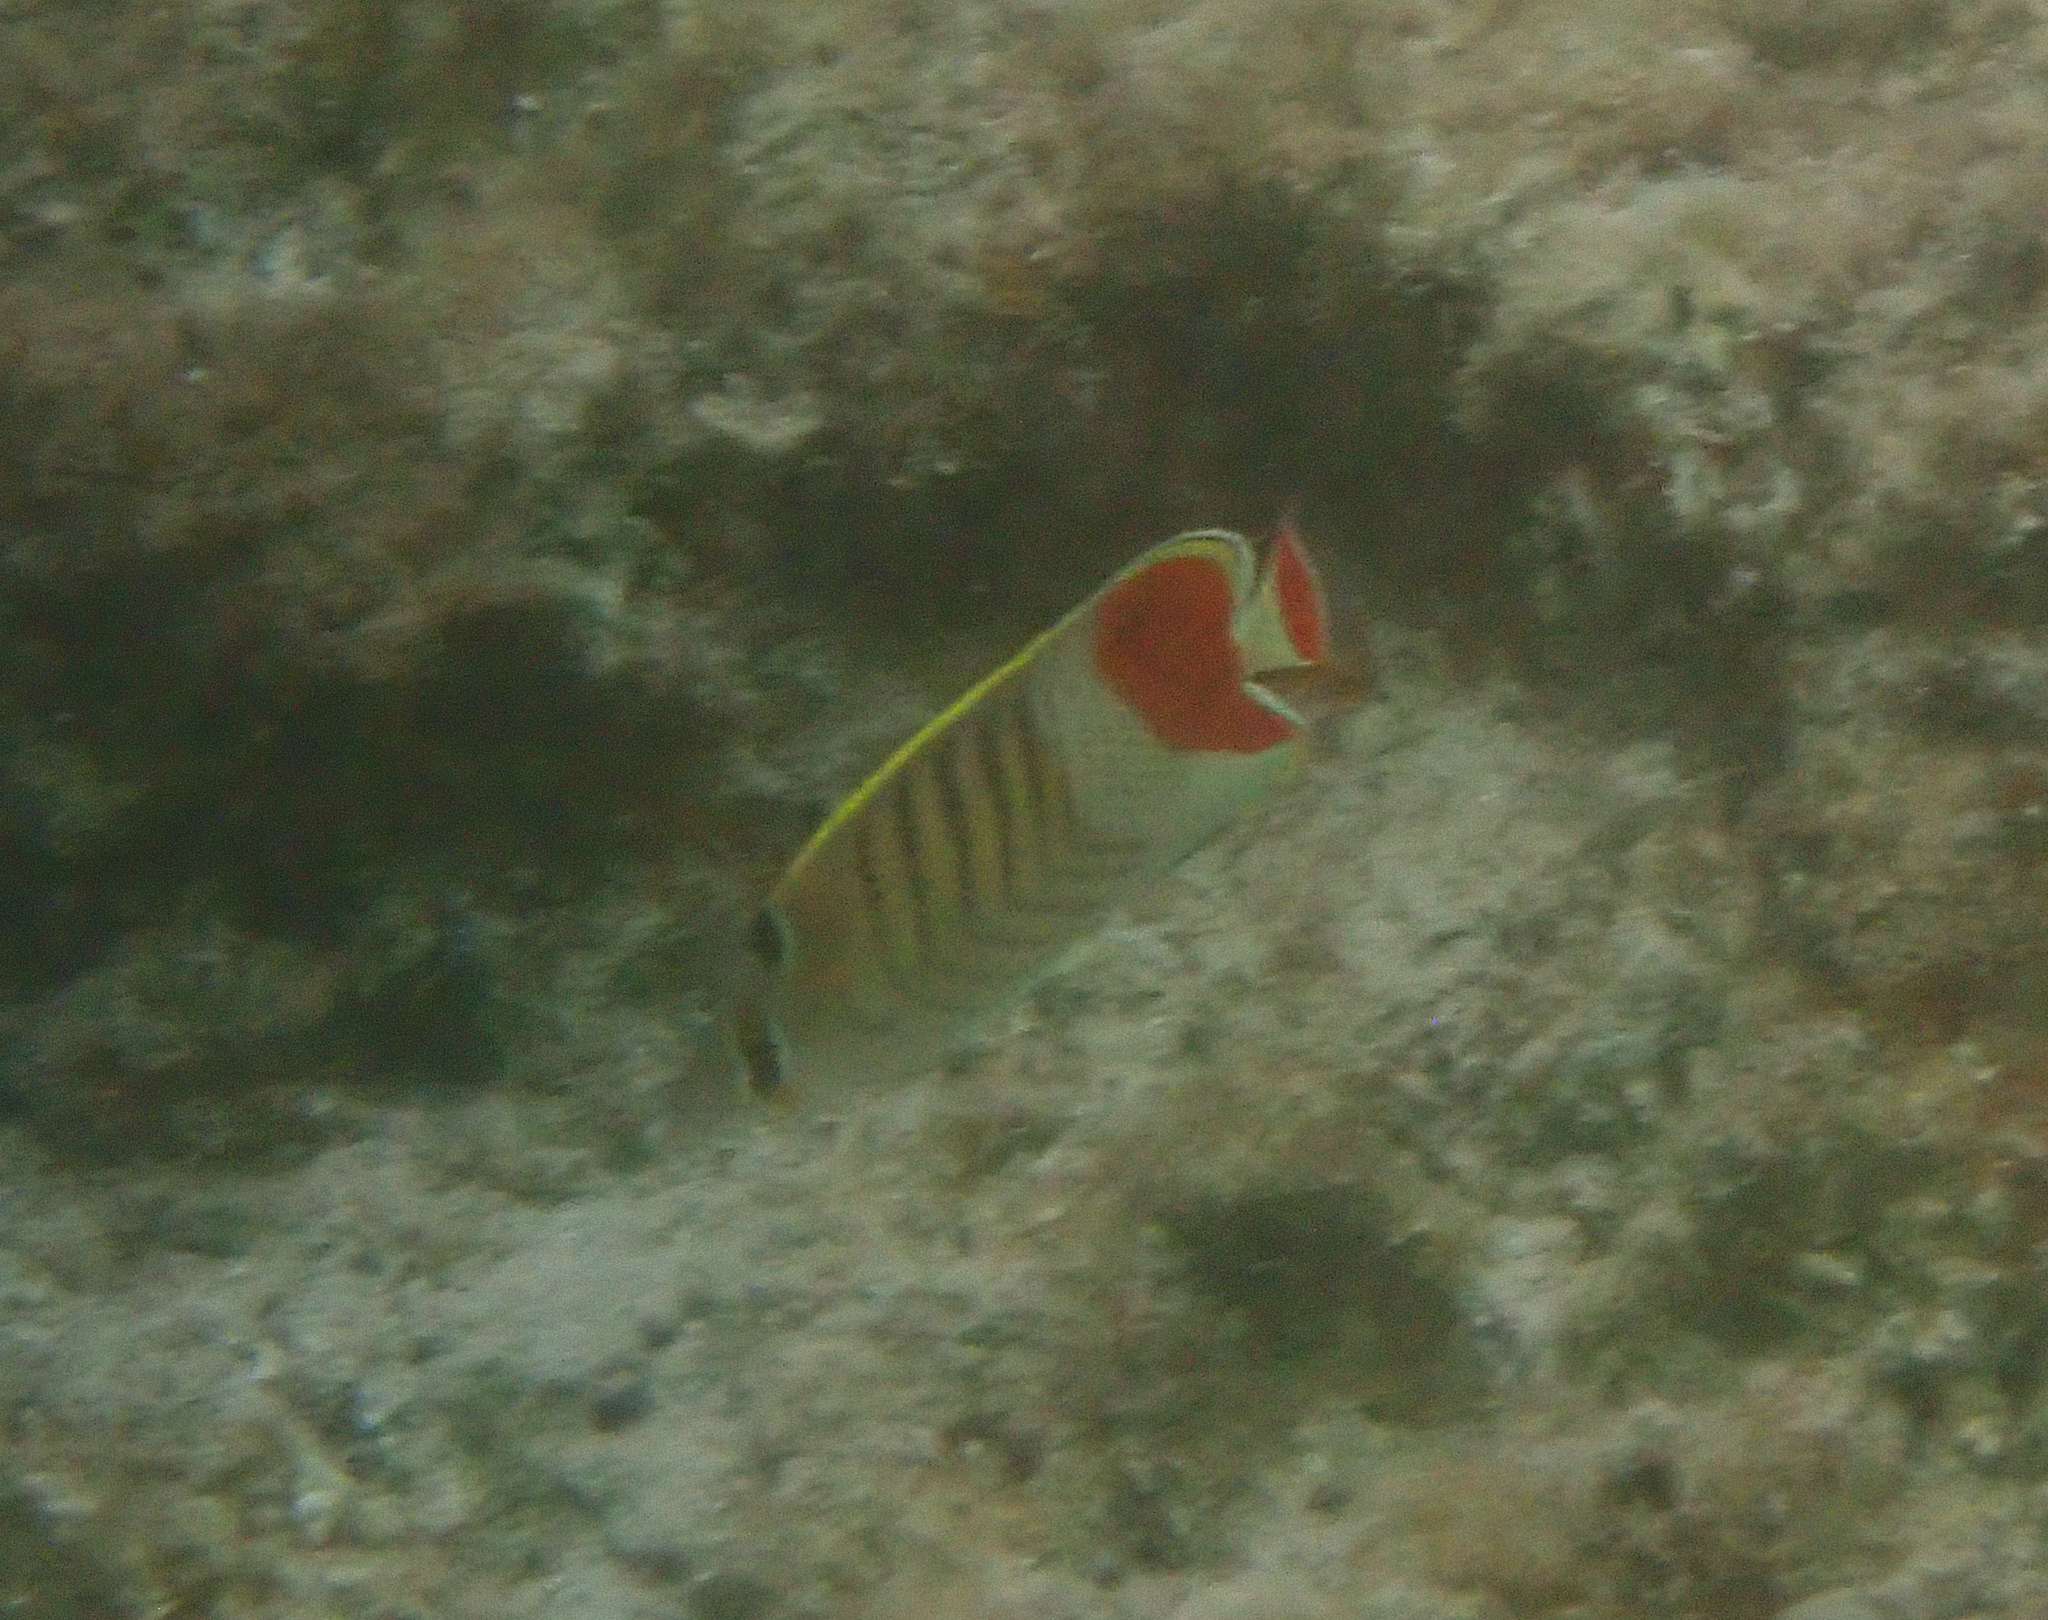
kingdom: Animalia
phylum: Chordata
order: Perciformes
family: Chaetodontidae
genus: Chaetodon
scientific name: Chaetodon paucifasciatus
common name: Crown butterflyfish
